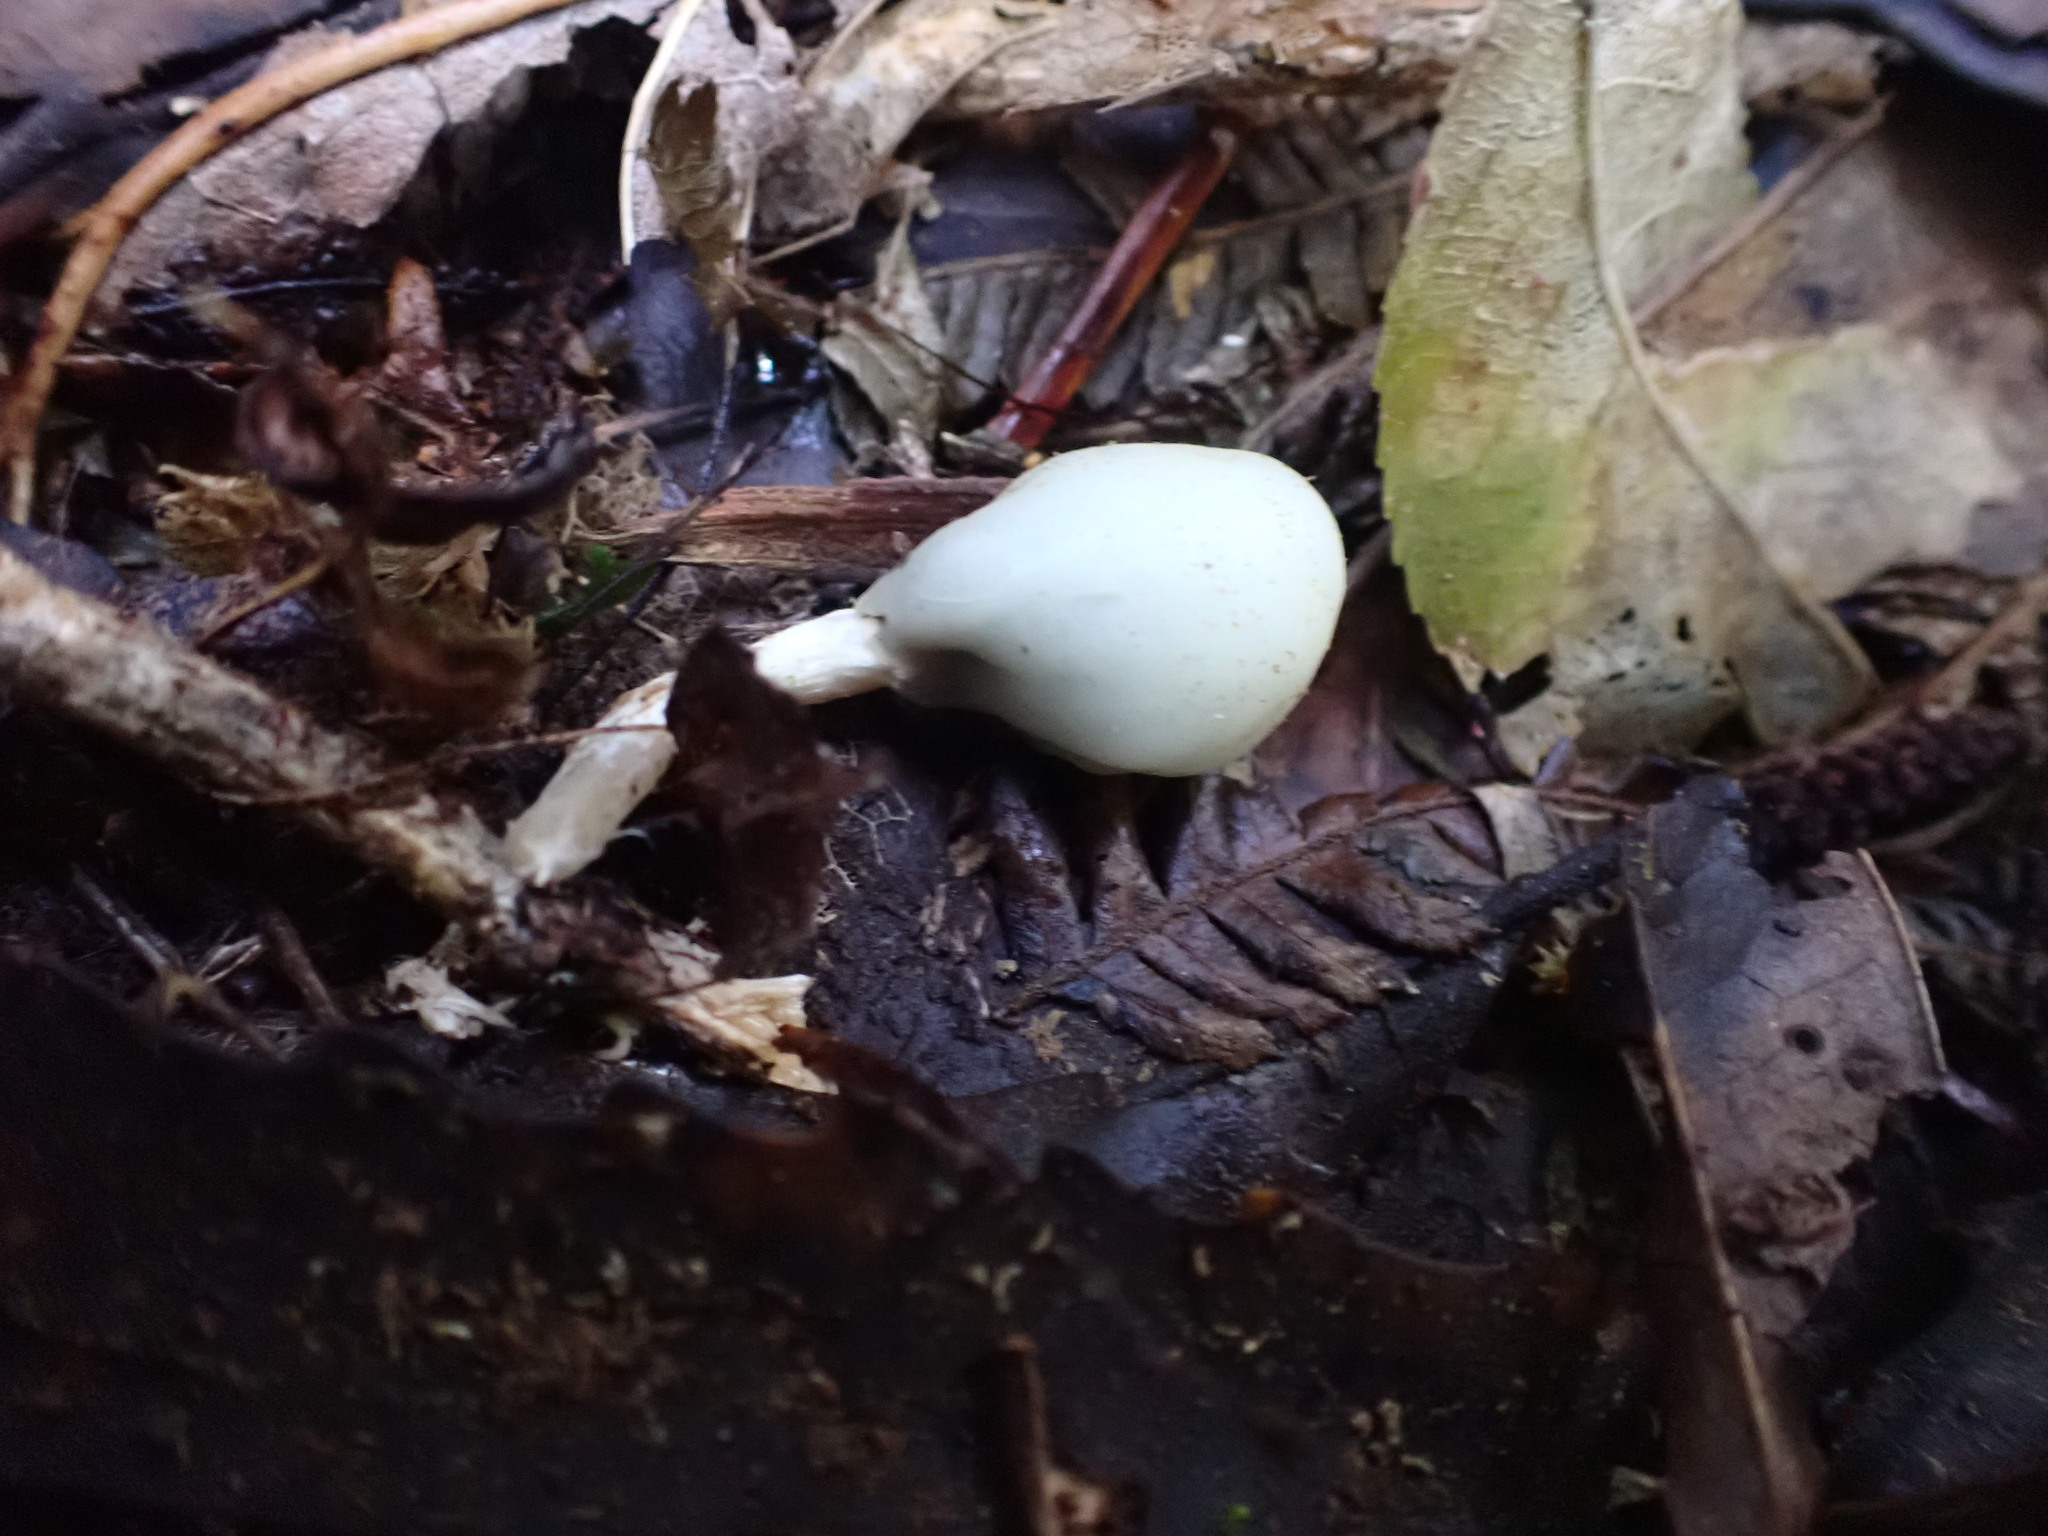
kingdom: Fungi
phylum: Basidiomycota
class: Agaricomycetes
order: Agaricales
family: Hymenogastraceae
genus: Psilocybe
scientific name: Psilocybe weraroa
